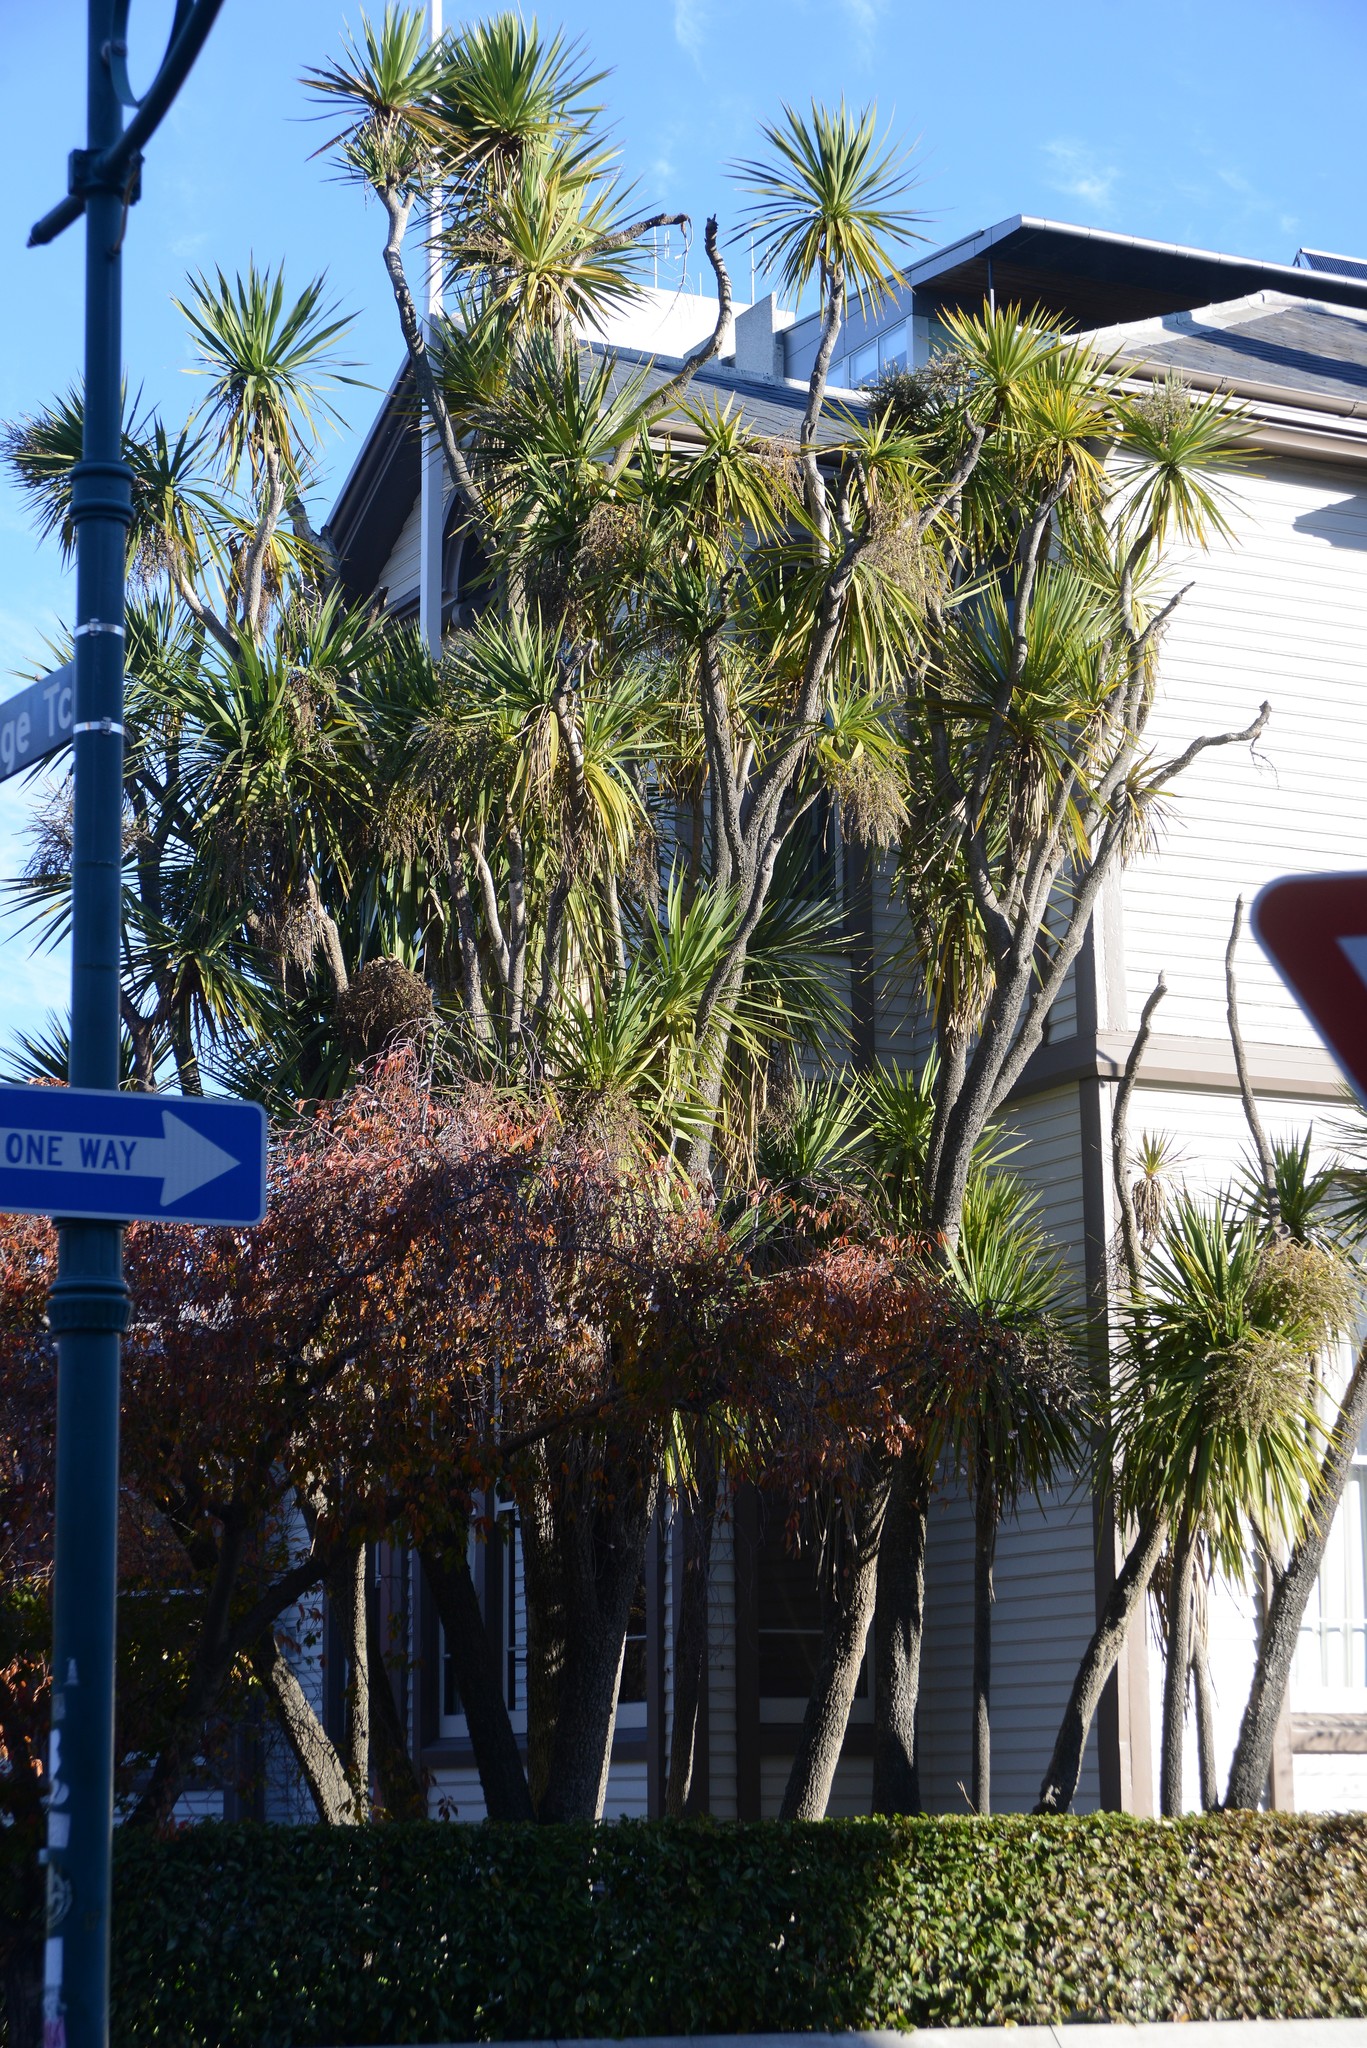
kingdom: Plantae
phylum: Tracheophyta
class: Liliopsida
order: Asparagales
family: Asparagaceae
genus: Cordyline
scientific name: Cordyline australis
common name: Cabbage-palm
